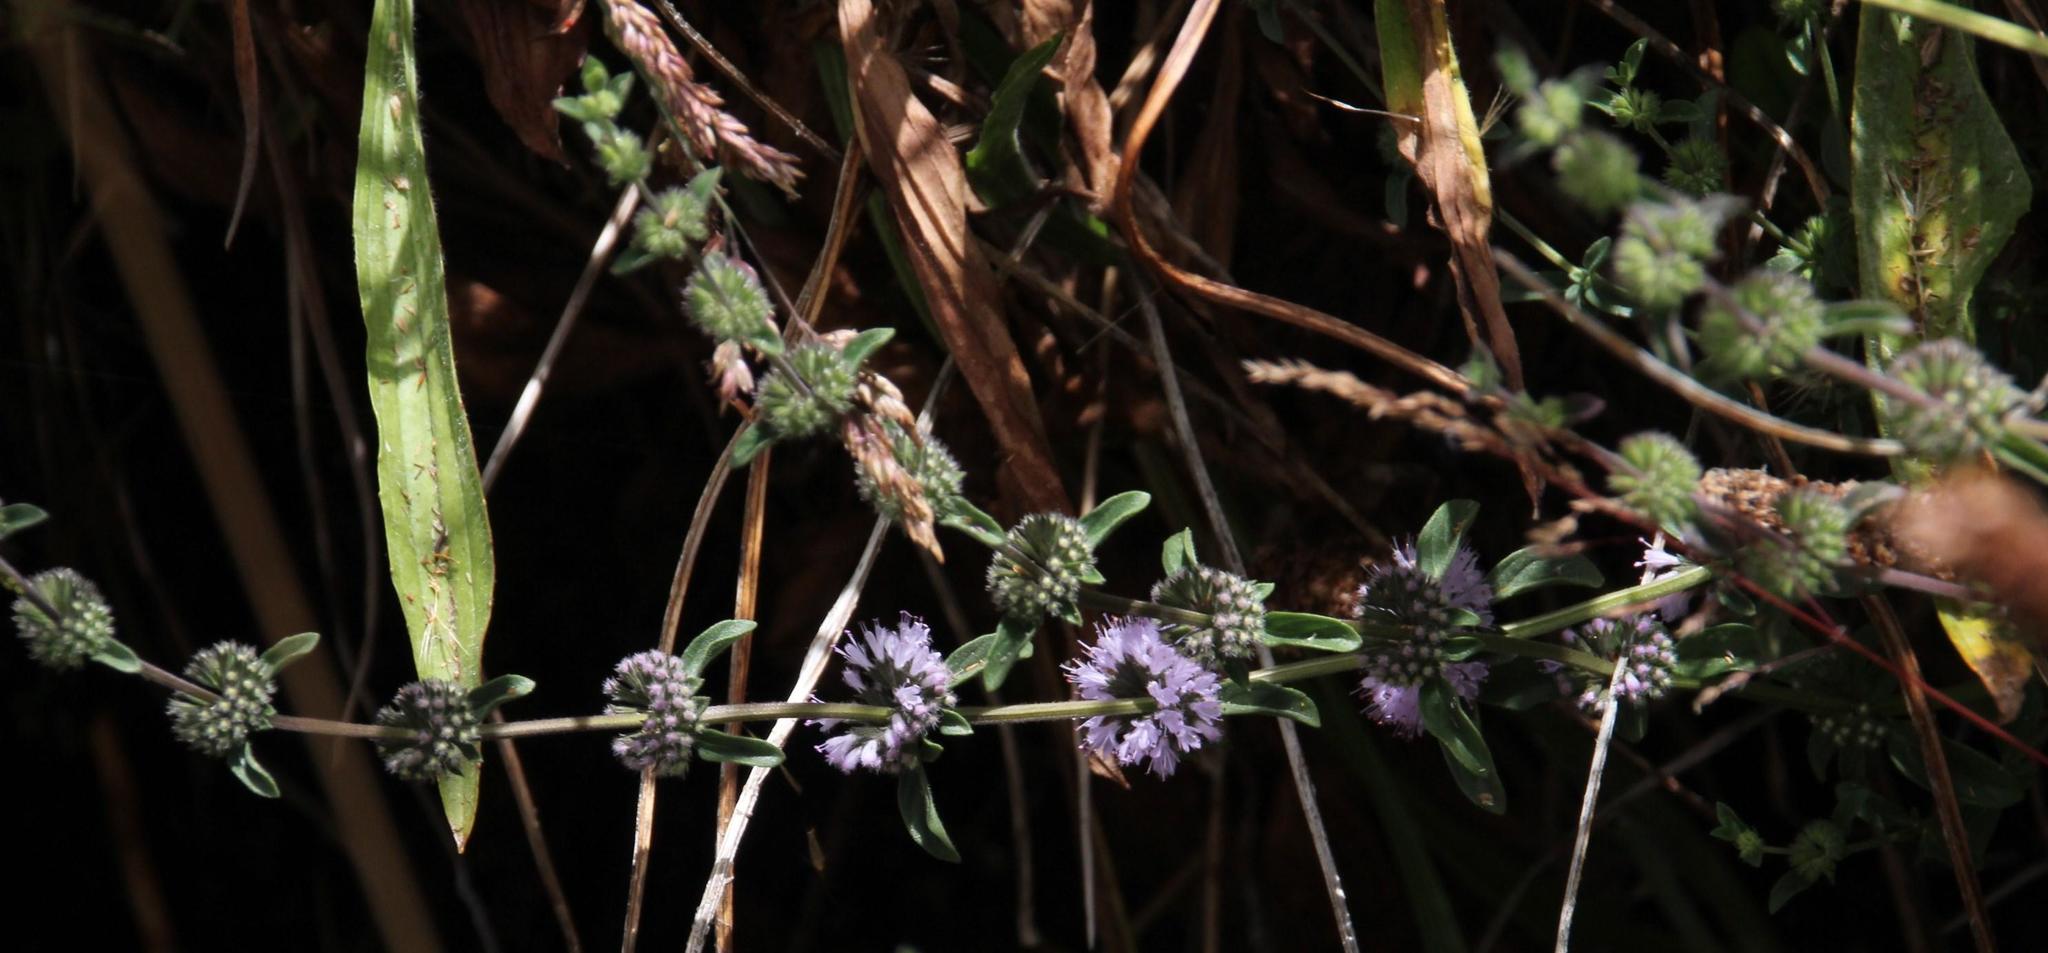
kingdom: Plantae
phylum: Tracheophyta
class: Magnoliopsida
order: Lamiales
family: Lamiaceae
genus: Mentha
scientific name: Mentha pulegium
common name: Pennyroyal
